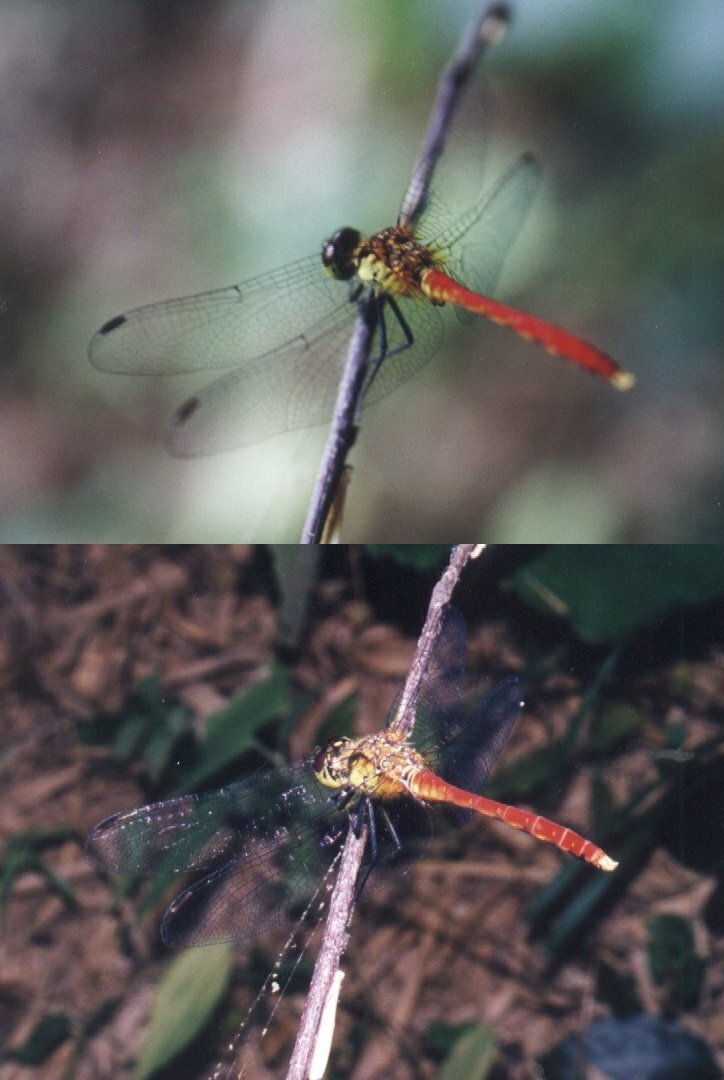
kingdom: Animalia
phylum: Arthropoda
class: Insecta
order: Odonata
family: Libellulidae
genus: Sympetrum
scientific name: Sympetrum eroticum
